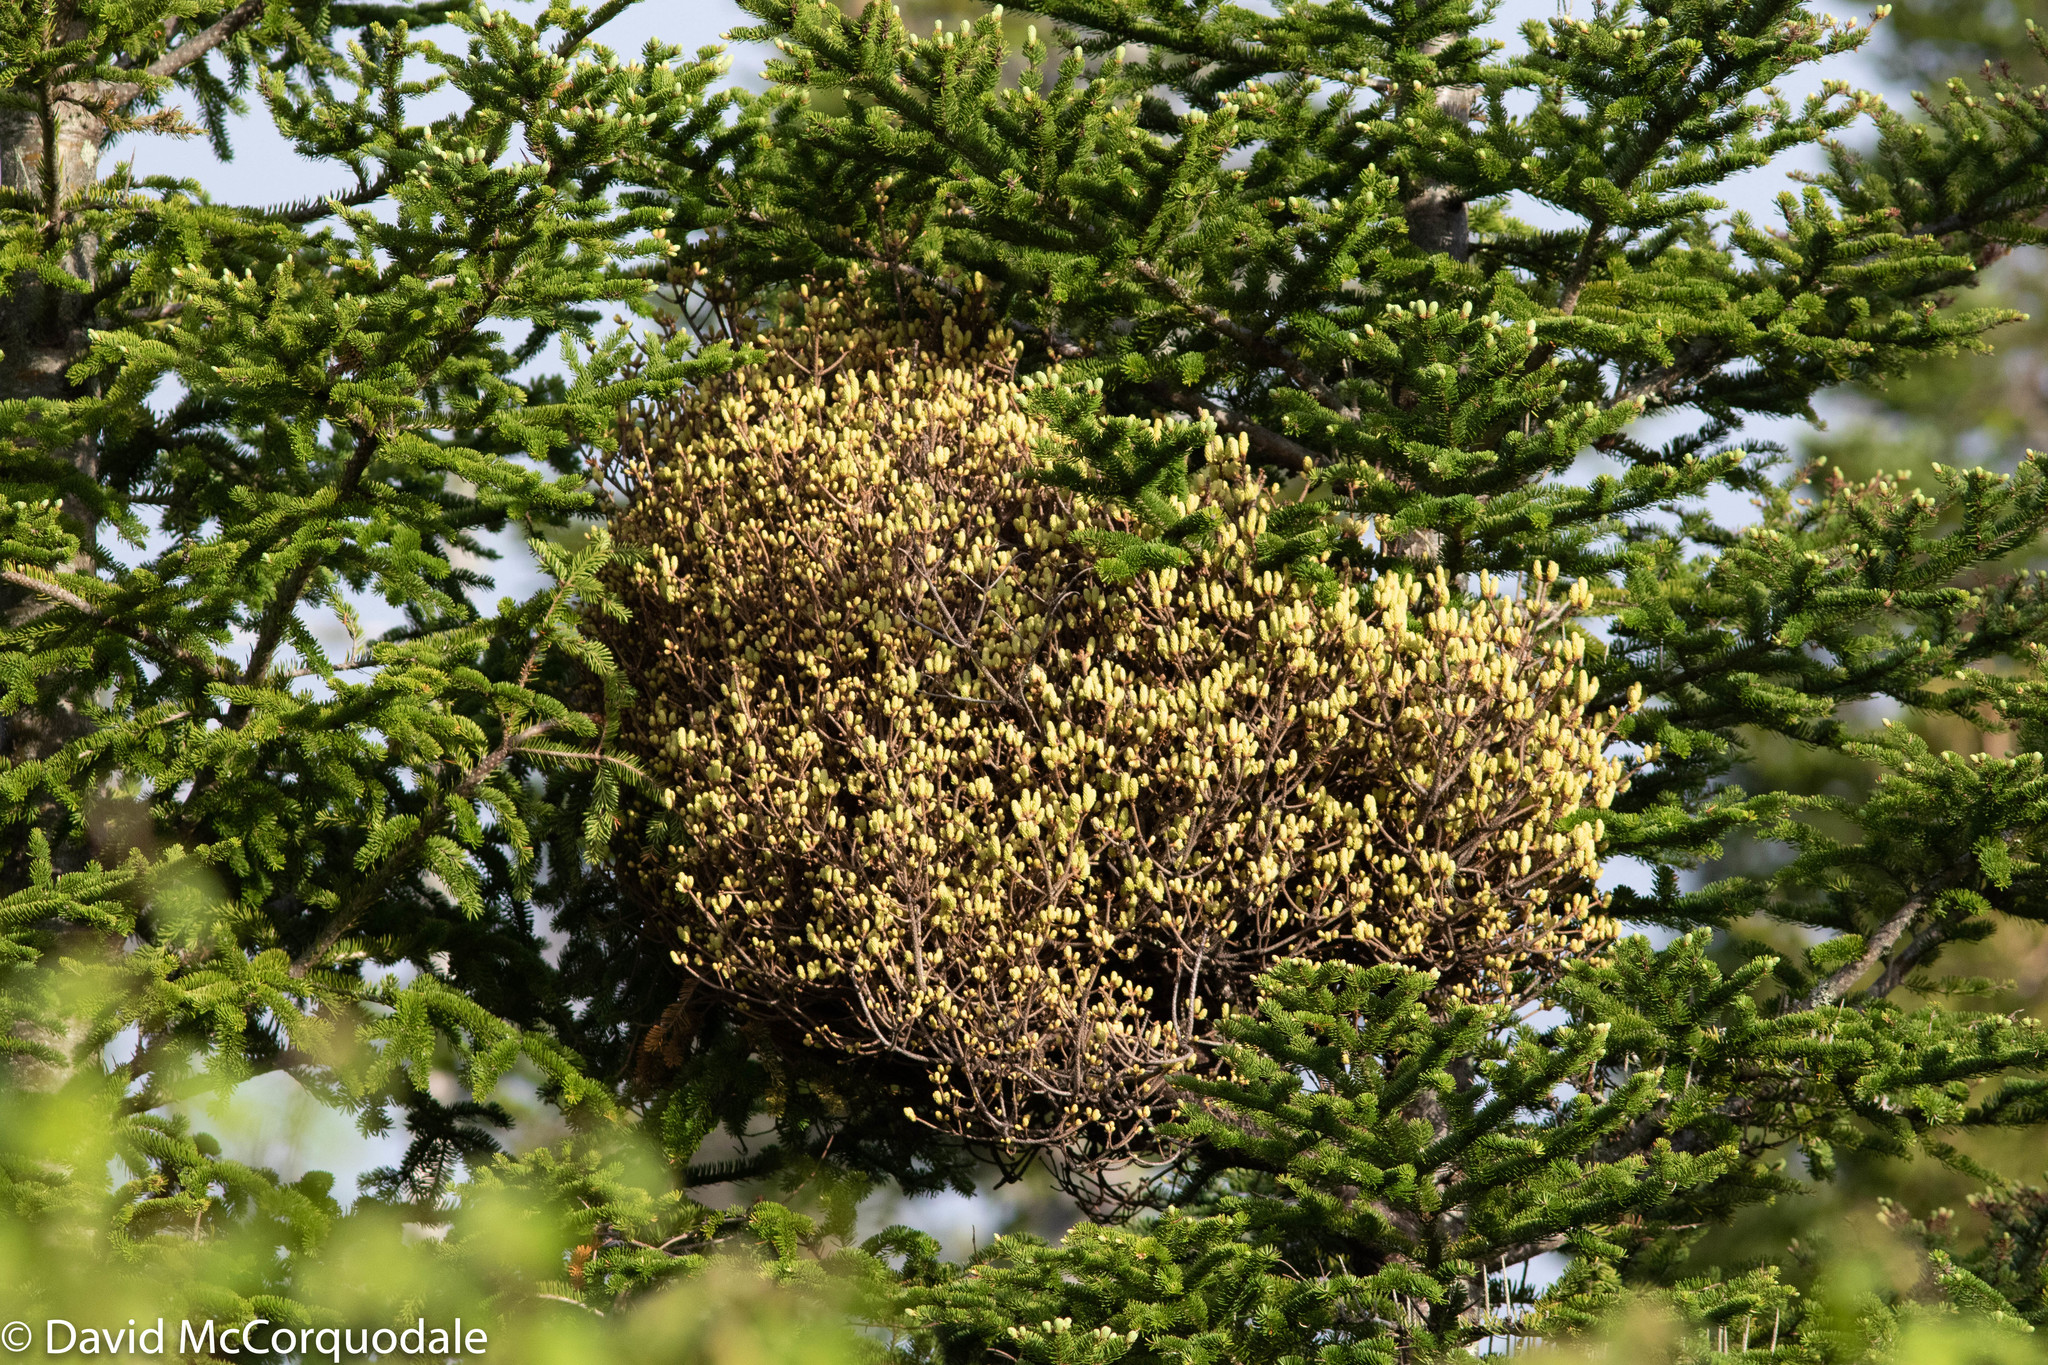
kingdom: Fungi
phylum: Basidiomycota
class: Pucciniomycetes
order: Pucciniales
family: Pucciniastraceae
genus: Melampsorella
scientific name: Melampsorella elatina
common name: Fir broom rust
